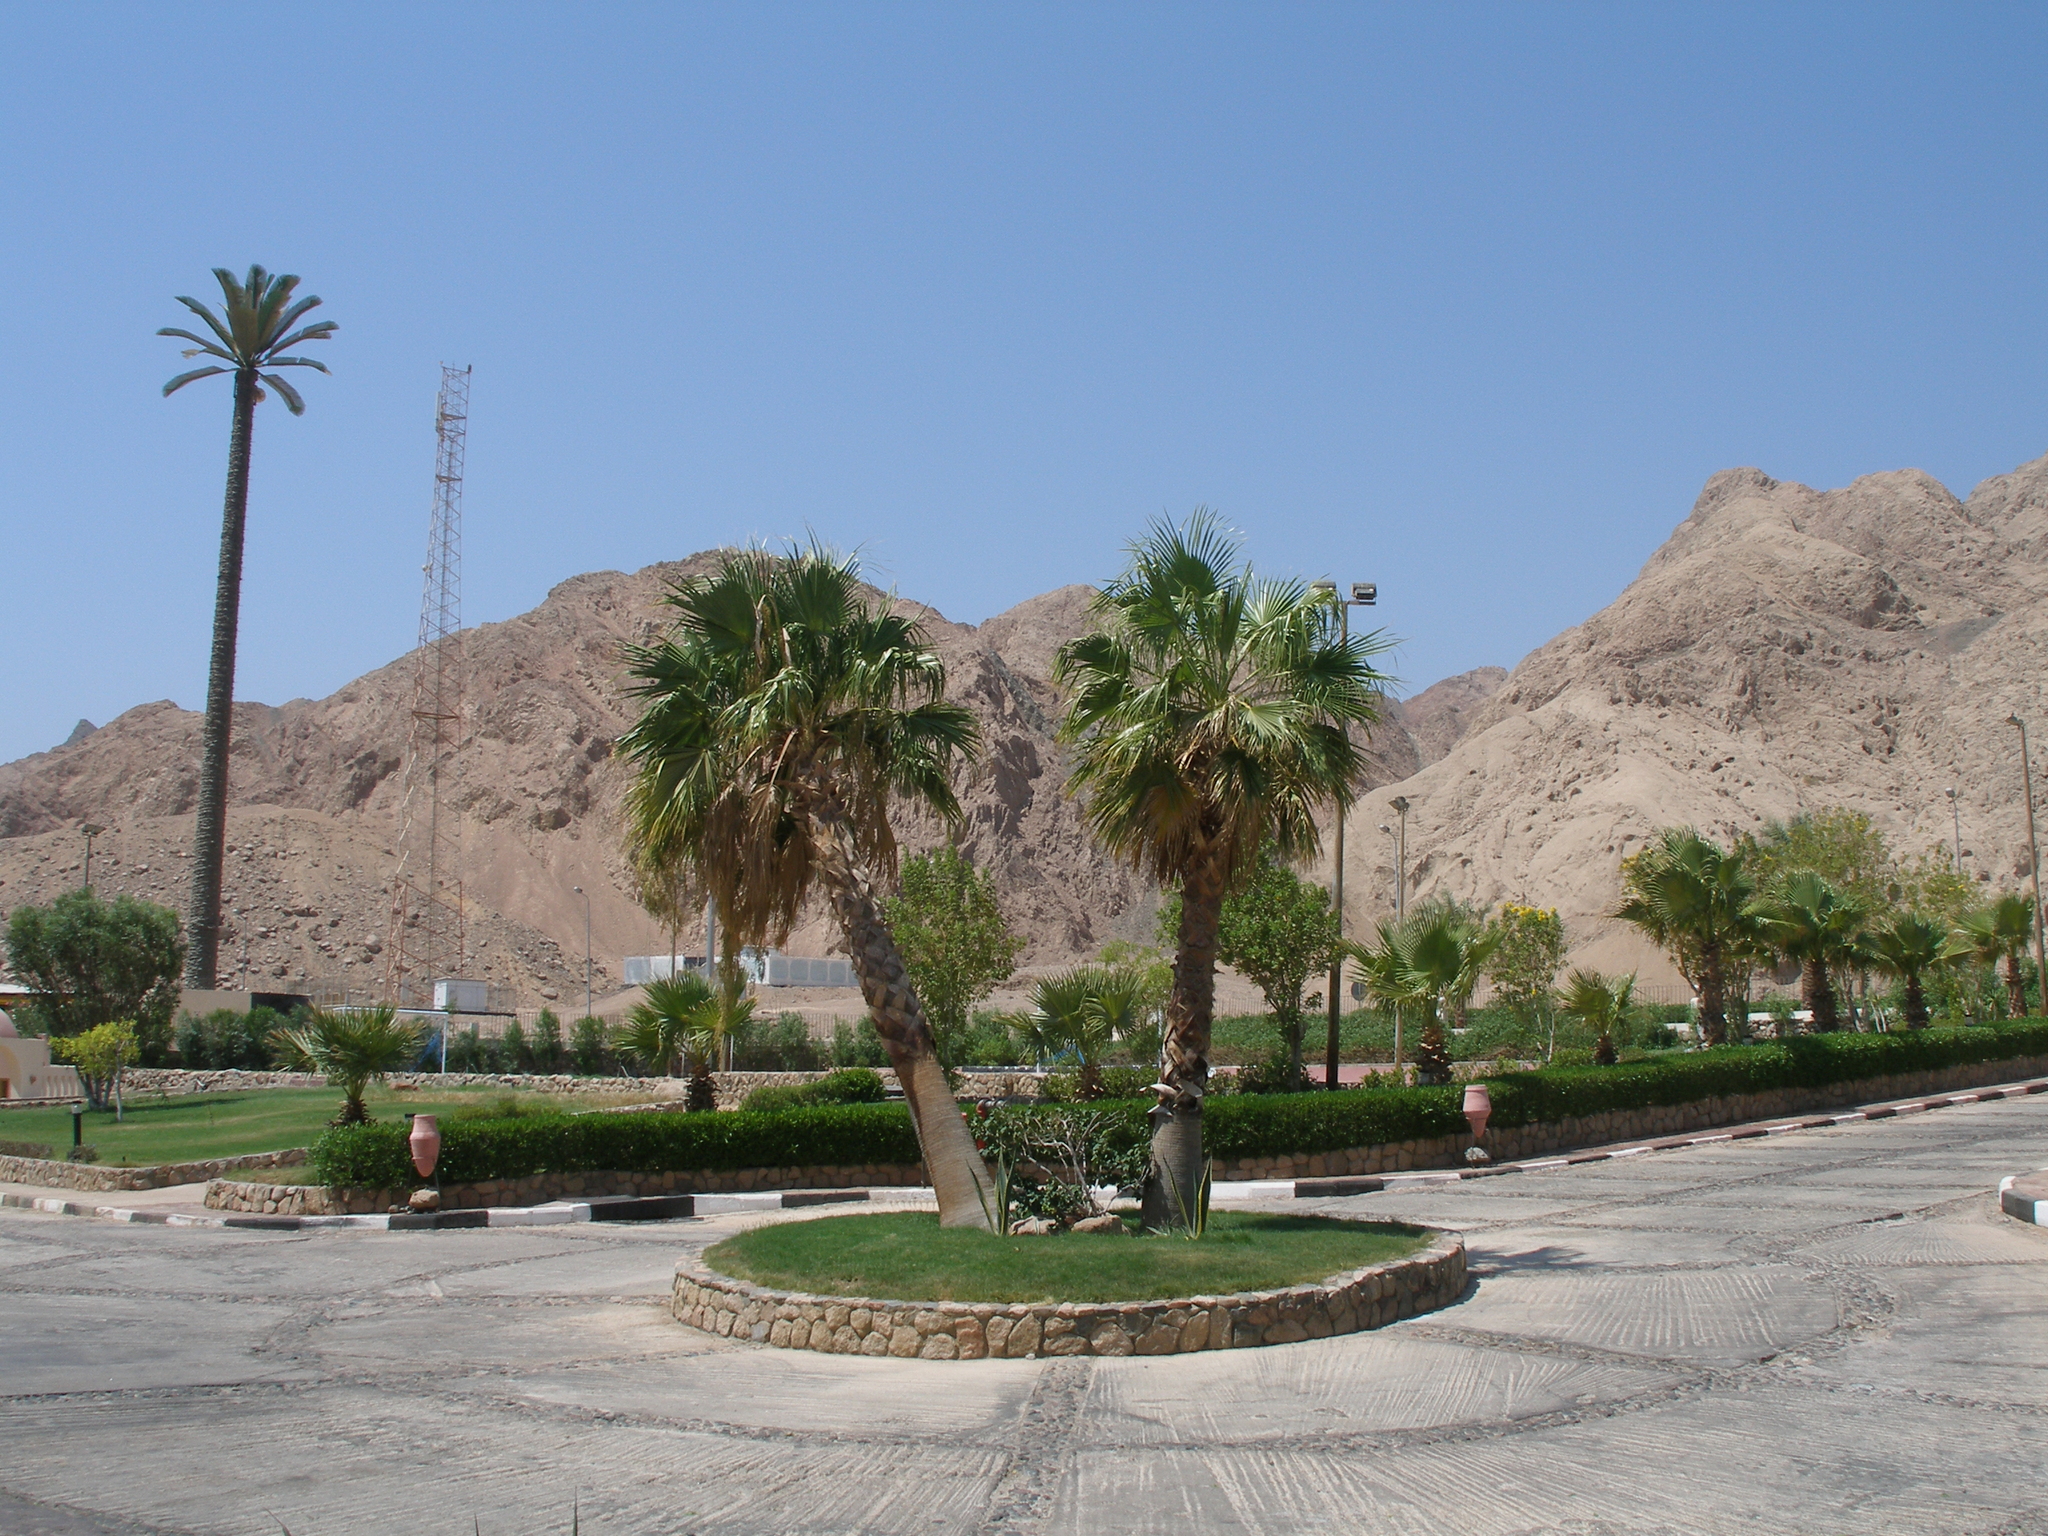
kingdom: Plantae
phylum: Tracheophyta
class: Liliopsida
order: Arecales
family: Arecaceae
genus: Washingtonia
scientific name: Washingtonia robusta
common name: Mexican fan palm
